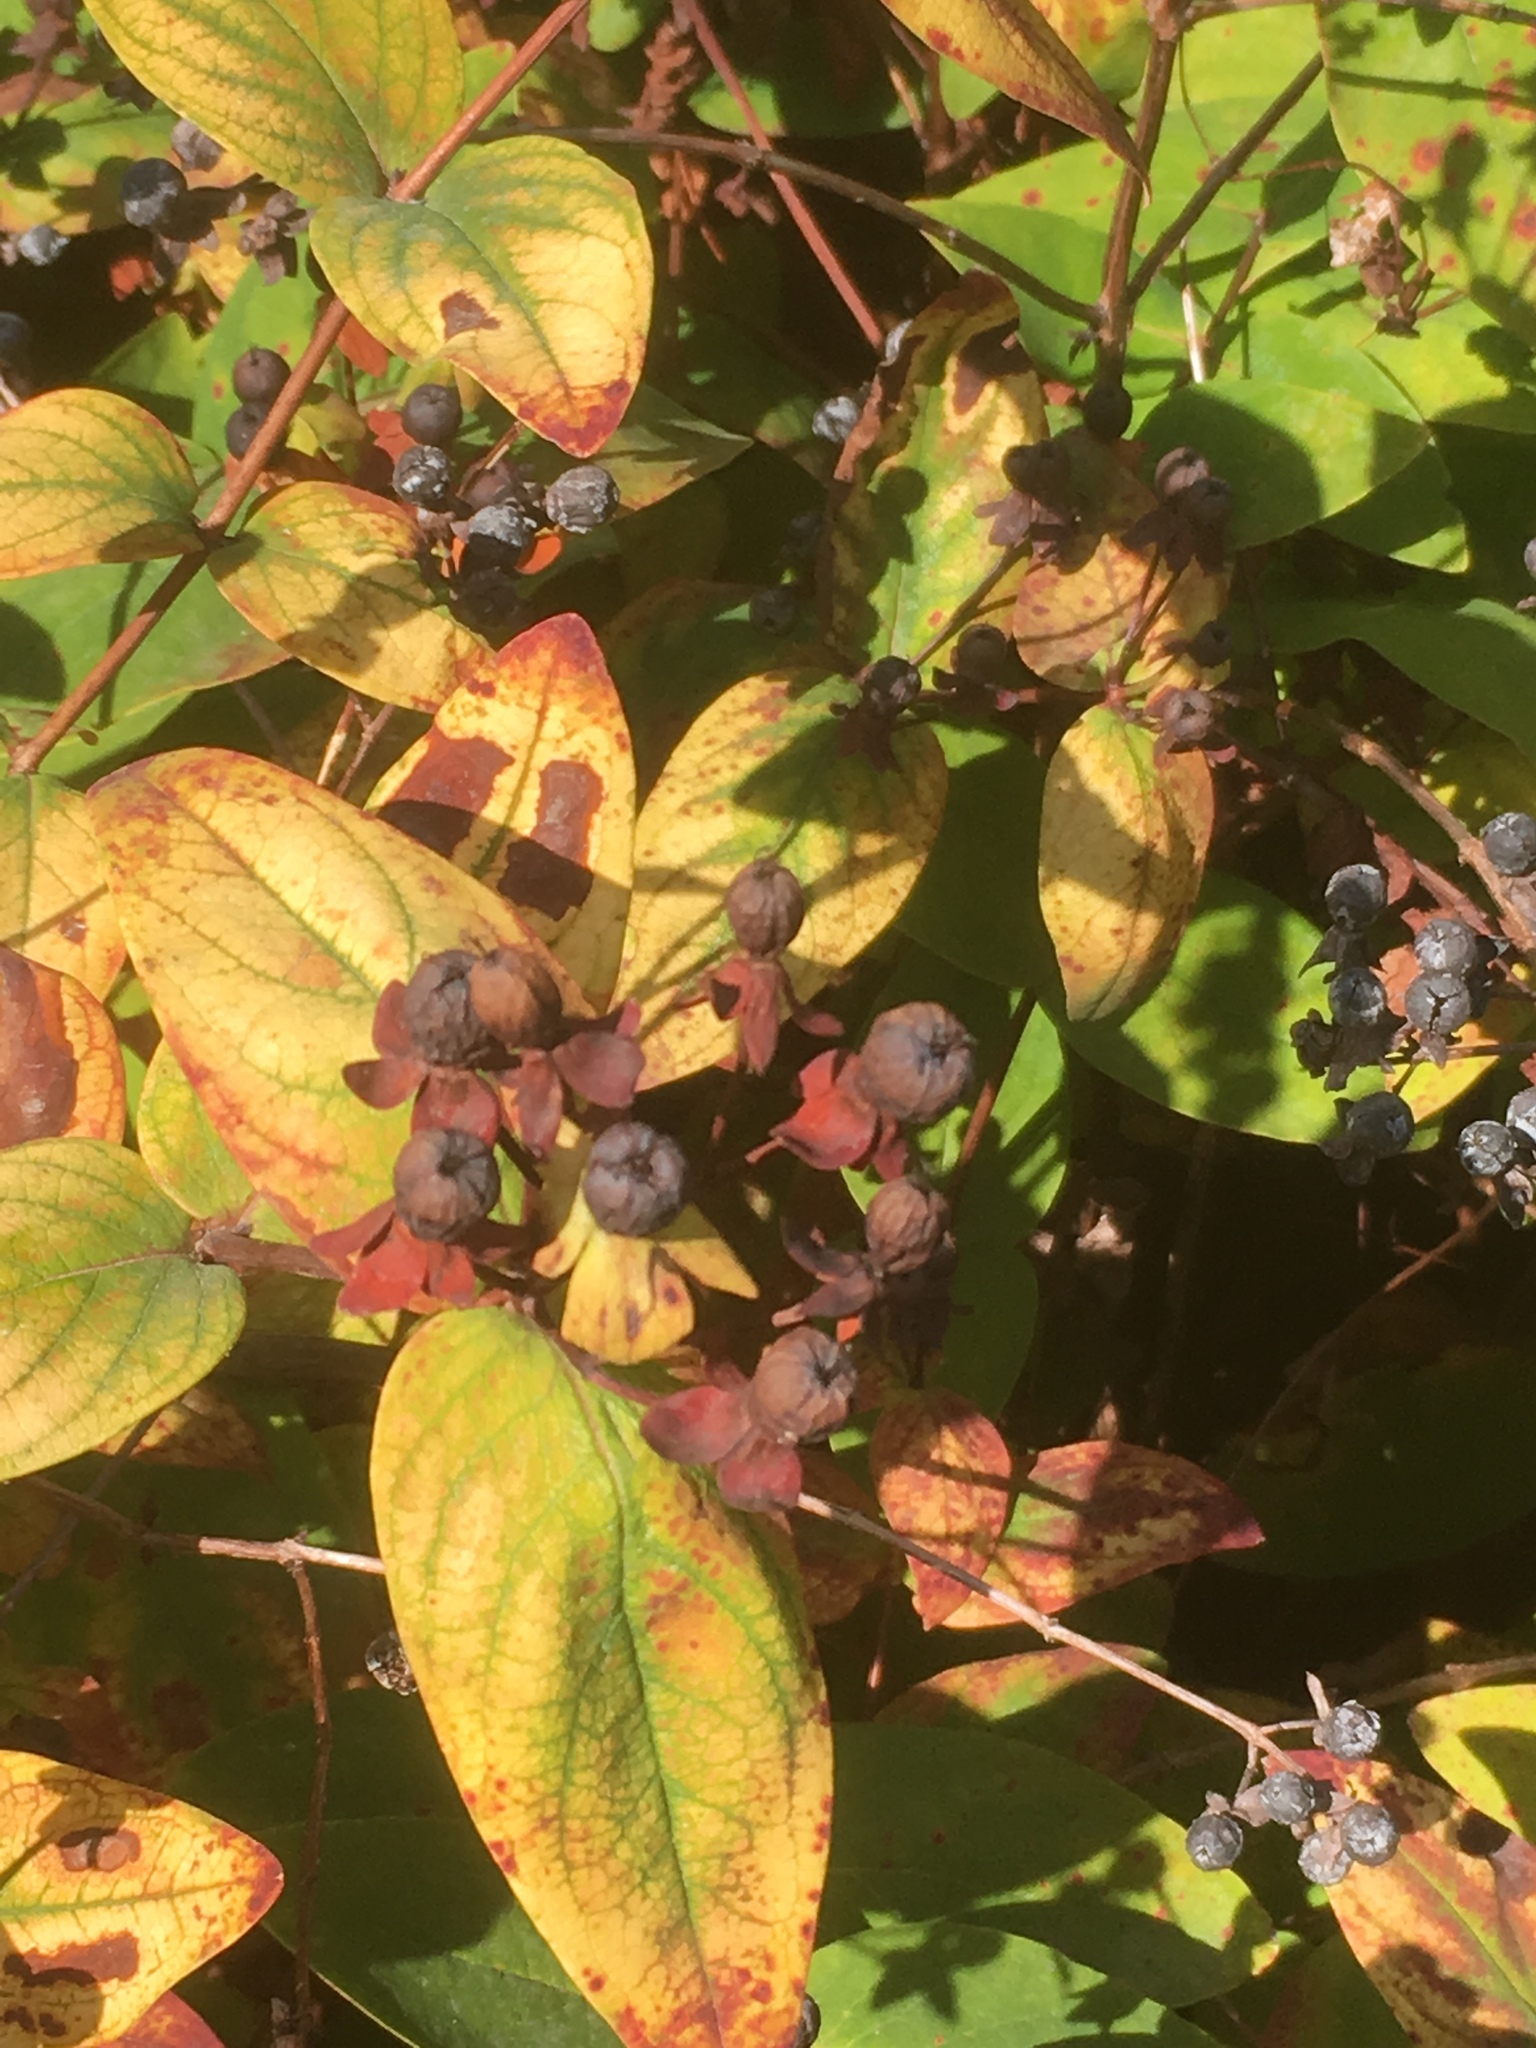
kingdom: Plantae
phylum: Tracheophyta
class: Magnoliopsida
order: Malpighiales
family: Hypericaceae
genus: Hypericum
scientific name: Hypericum androsaemum
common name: Sweet-amber
